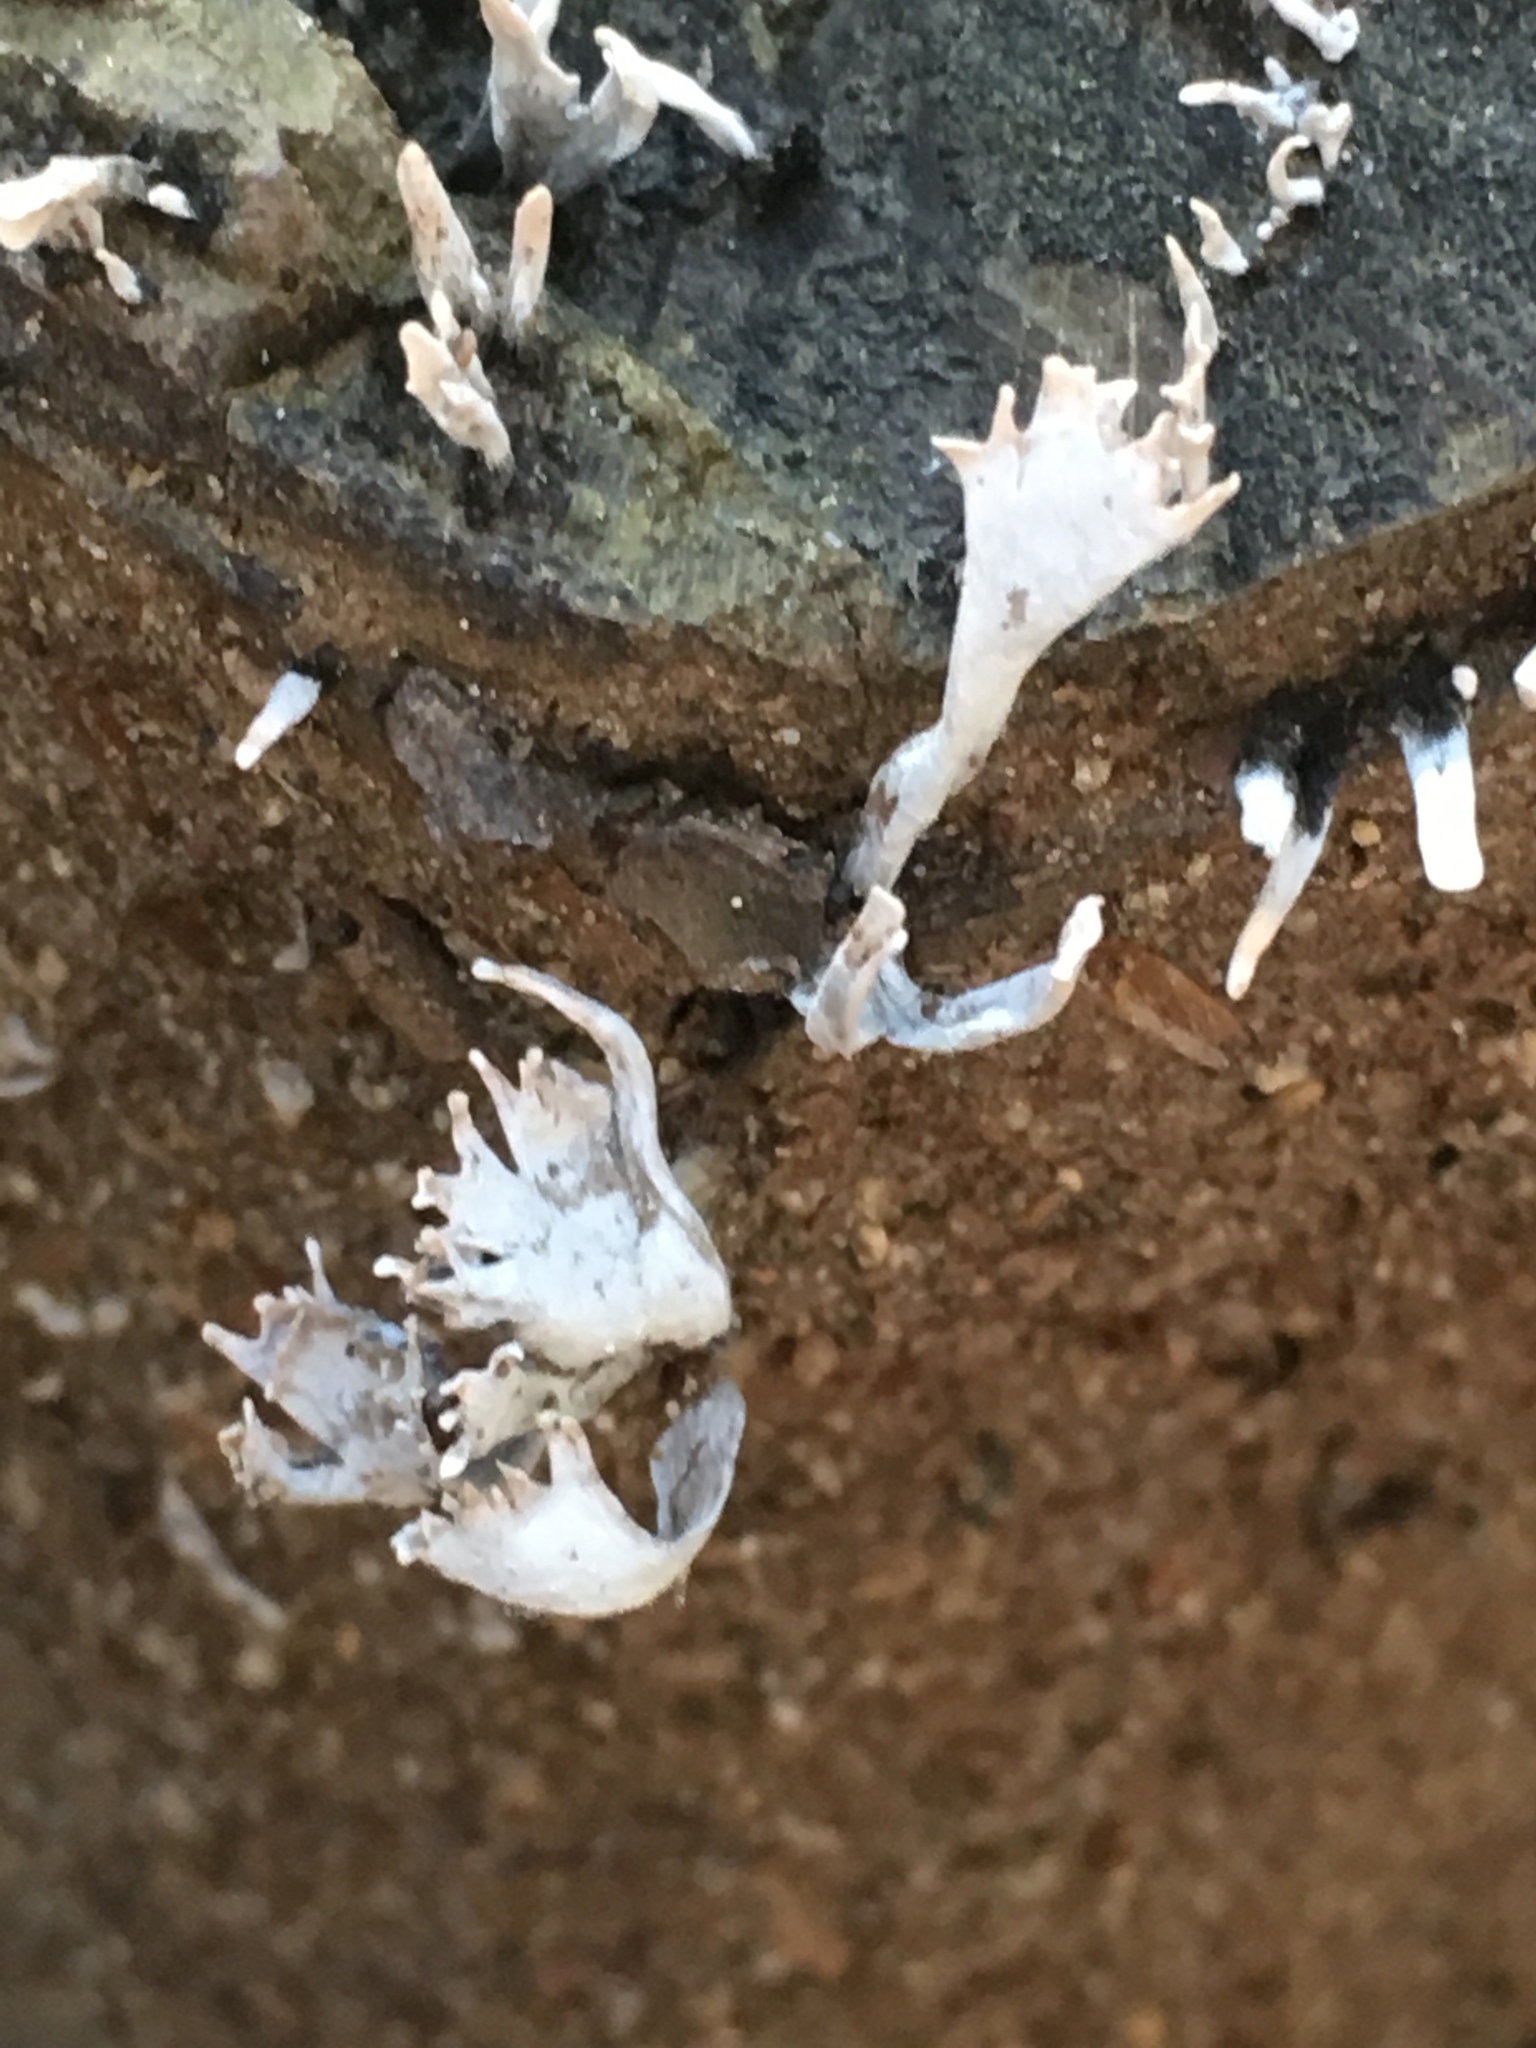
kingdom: Fungi
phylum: Ascomycota
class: Sordariomycetes
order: Xylariales
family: Xylariaceae
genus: Xylaria
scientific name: Xylaria hypoxylon
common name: Candle-snuff fungus
